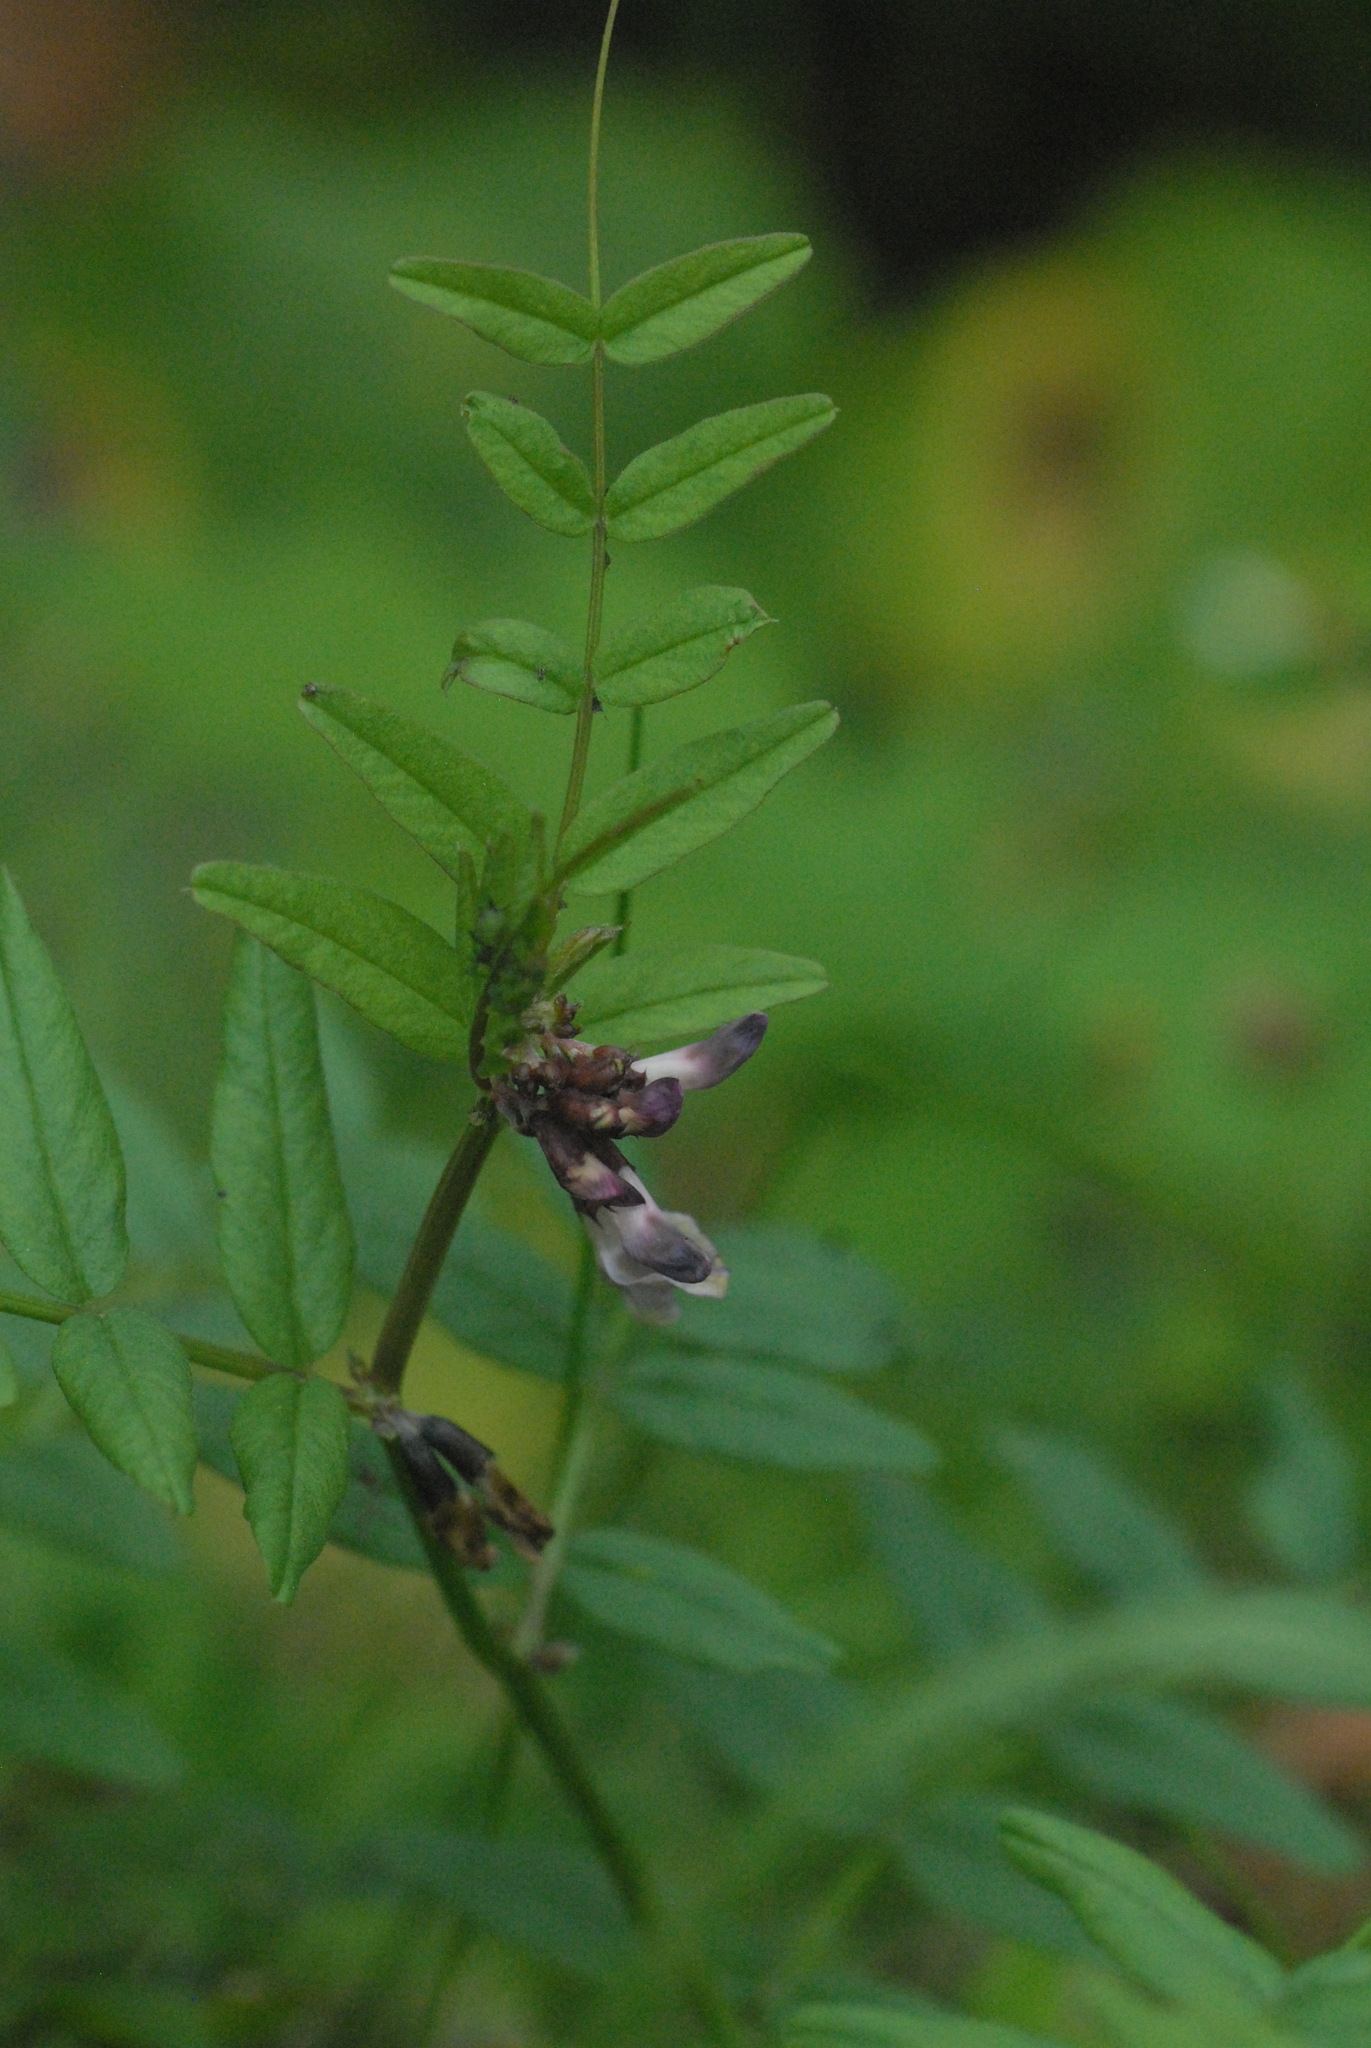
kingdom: Plantae
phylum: Tracheophyta
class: Magnoliopsida
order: Fabales
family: Fabaceae
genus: Vicia
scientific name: Vicia sepium
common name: Bush vetch
